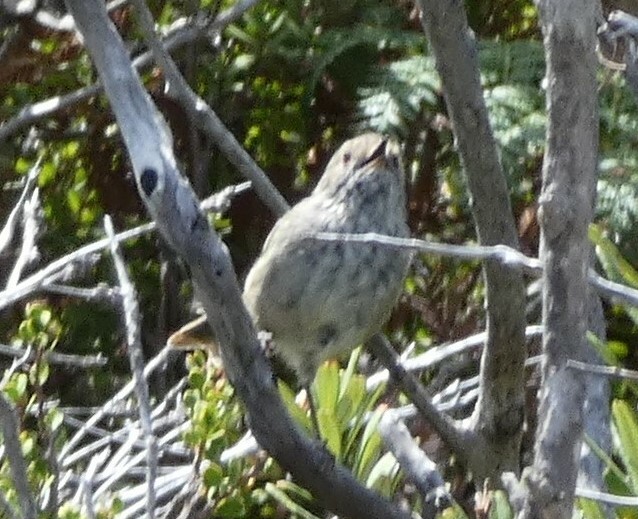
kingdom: Animalia
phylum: Chordata
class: Aves
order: Passeriformes
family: Acanthizidae
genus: Acanthiza
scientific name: Acanthiza pusilla
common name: Brown thornbill
